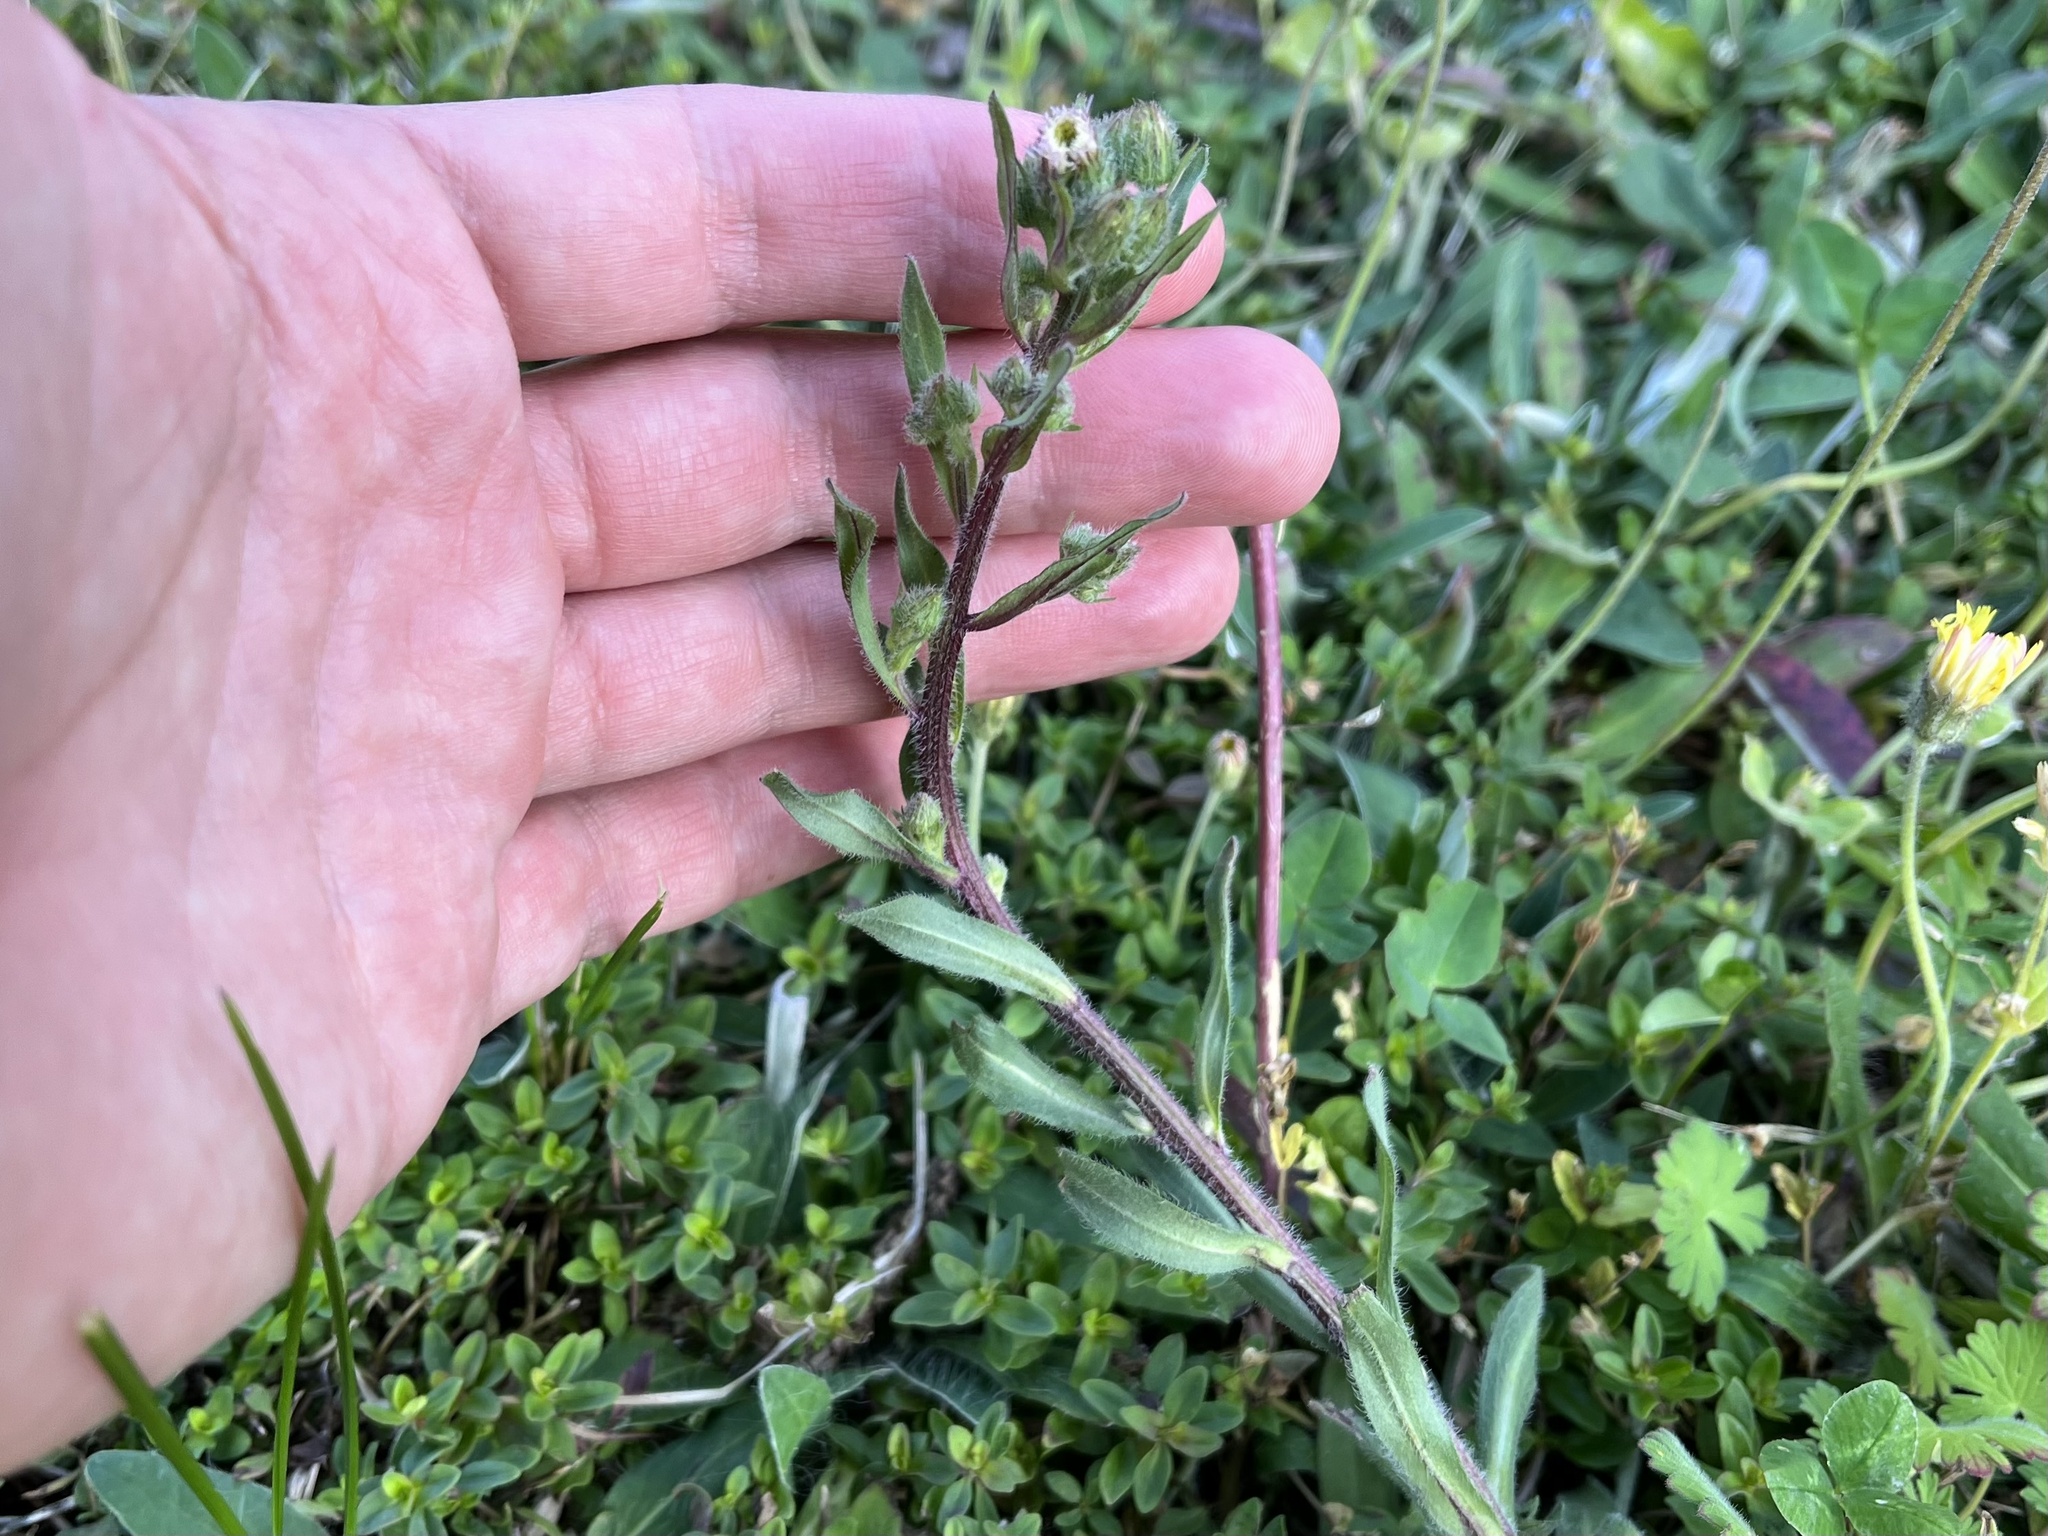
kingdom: Plantae
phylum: Tracheophyta
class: Magnoliopsida
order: Asterales
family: Asteraceae
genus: Erigeron
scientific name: Erigeron acris
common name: Blue fleabane
